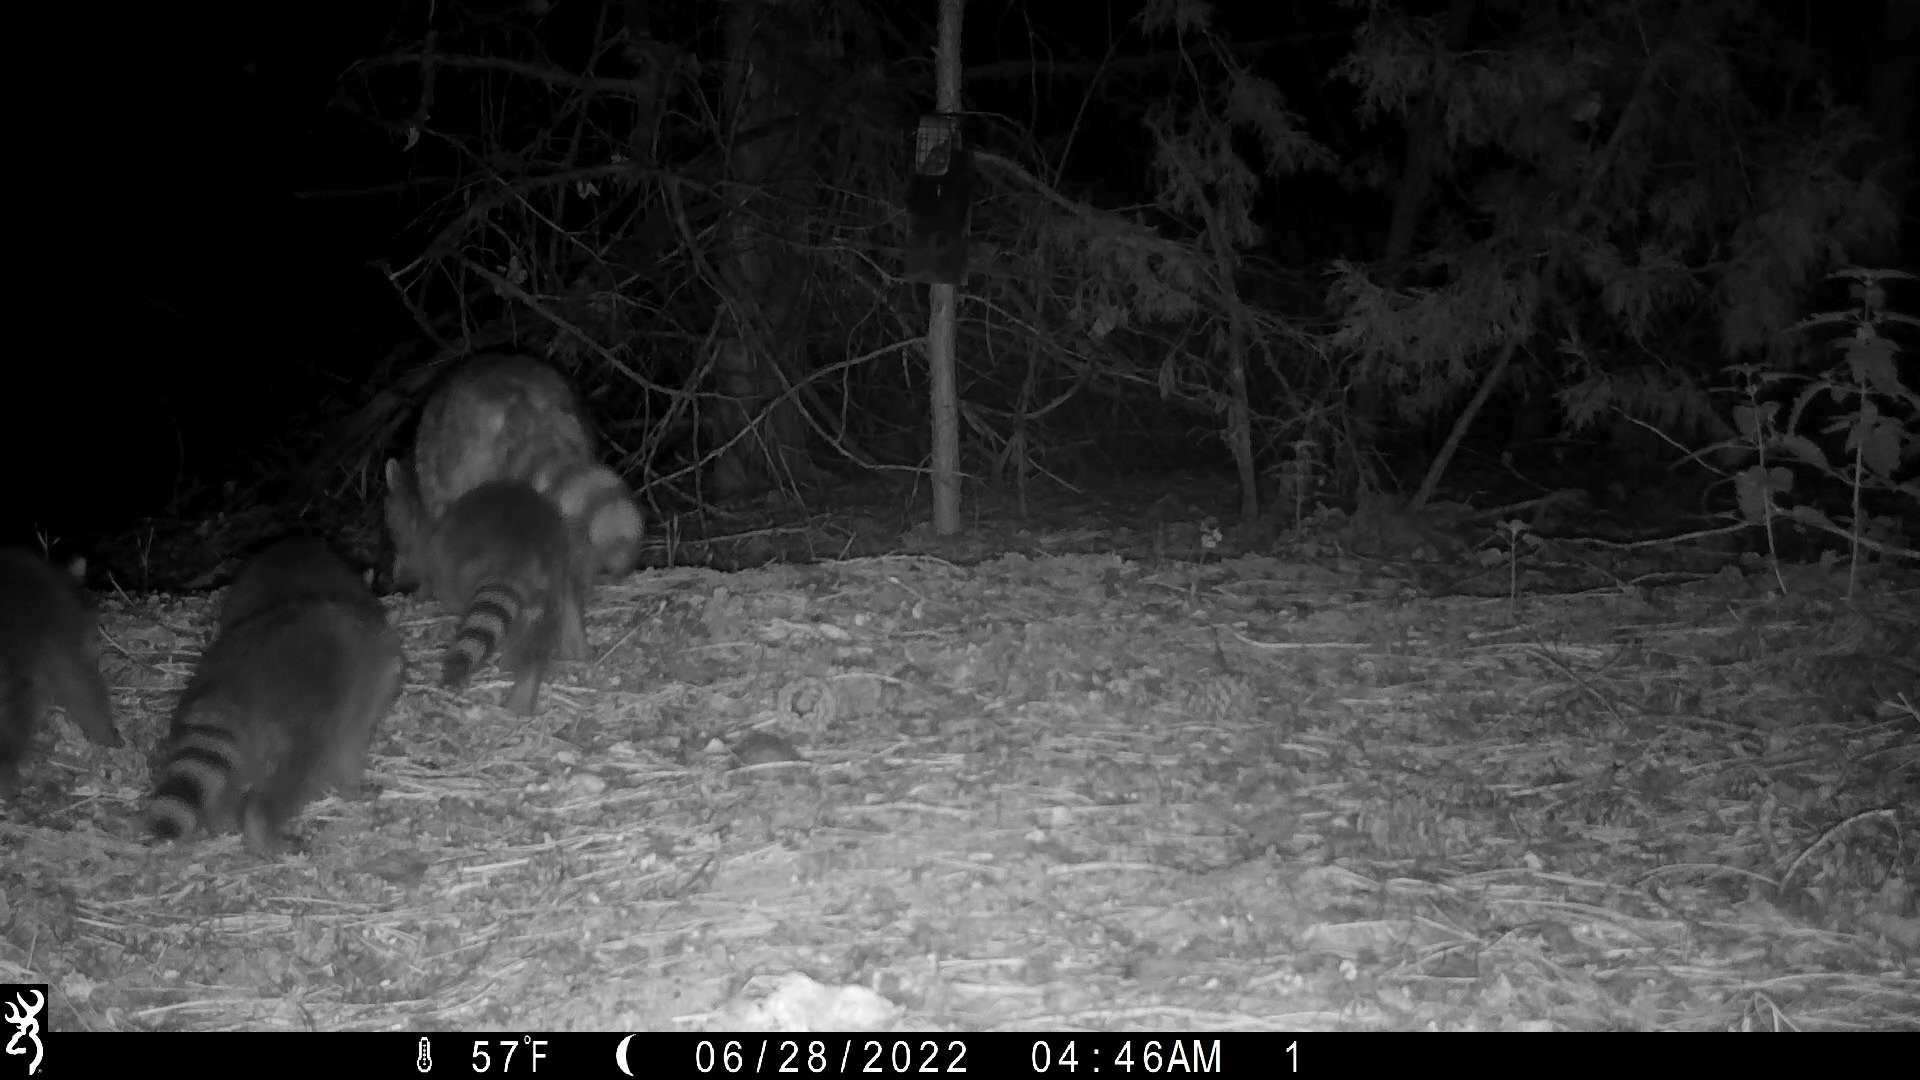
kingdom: Animalia
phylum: Chordata
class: Mammalia
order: Carnivora
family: Procyonidae
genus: Procyon
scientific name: Procyon lotor
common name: Raccoon
